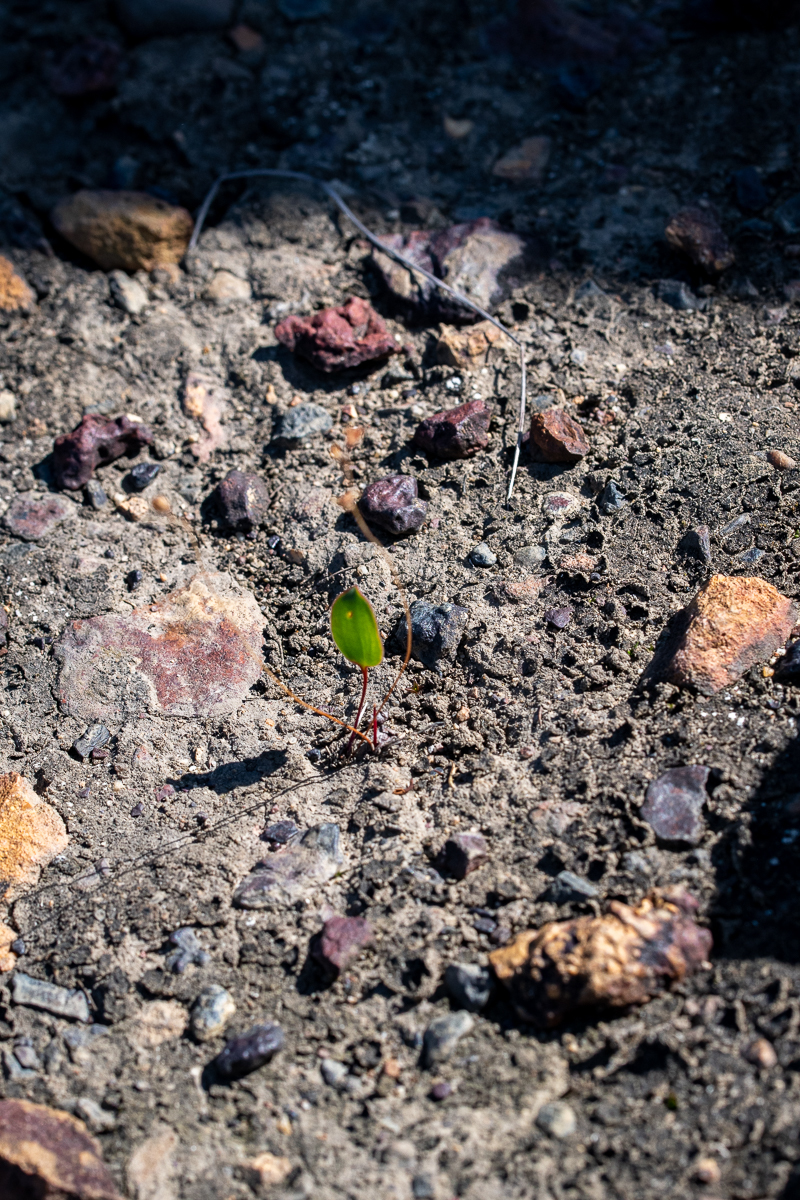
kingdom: Plantae
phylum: Tracheophyta
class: Liliopsida
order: Asparagales
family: Asparagaceae
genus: Eriospermum
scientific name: Eriospermum cernuum
